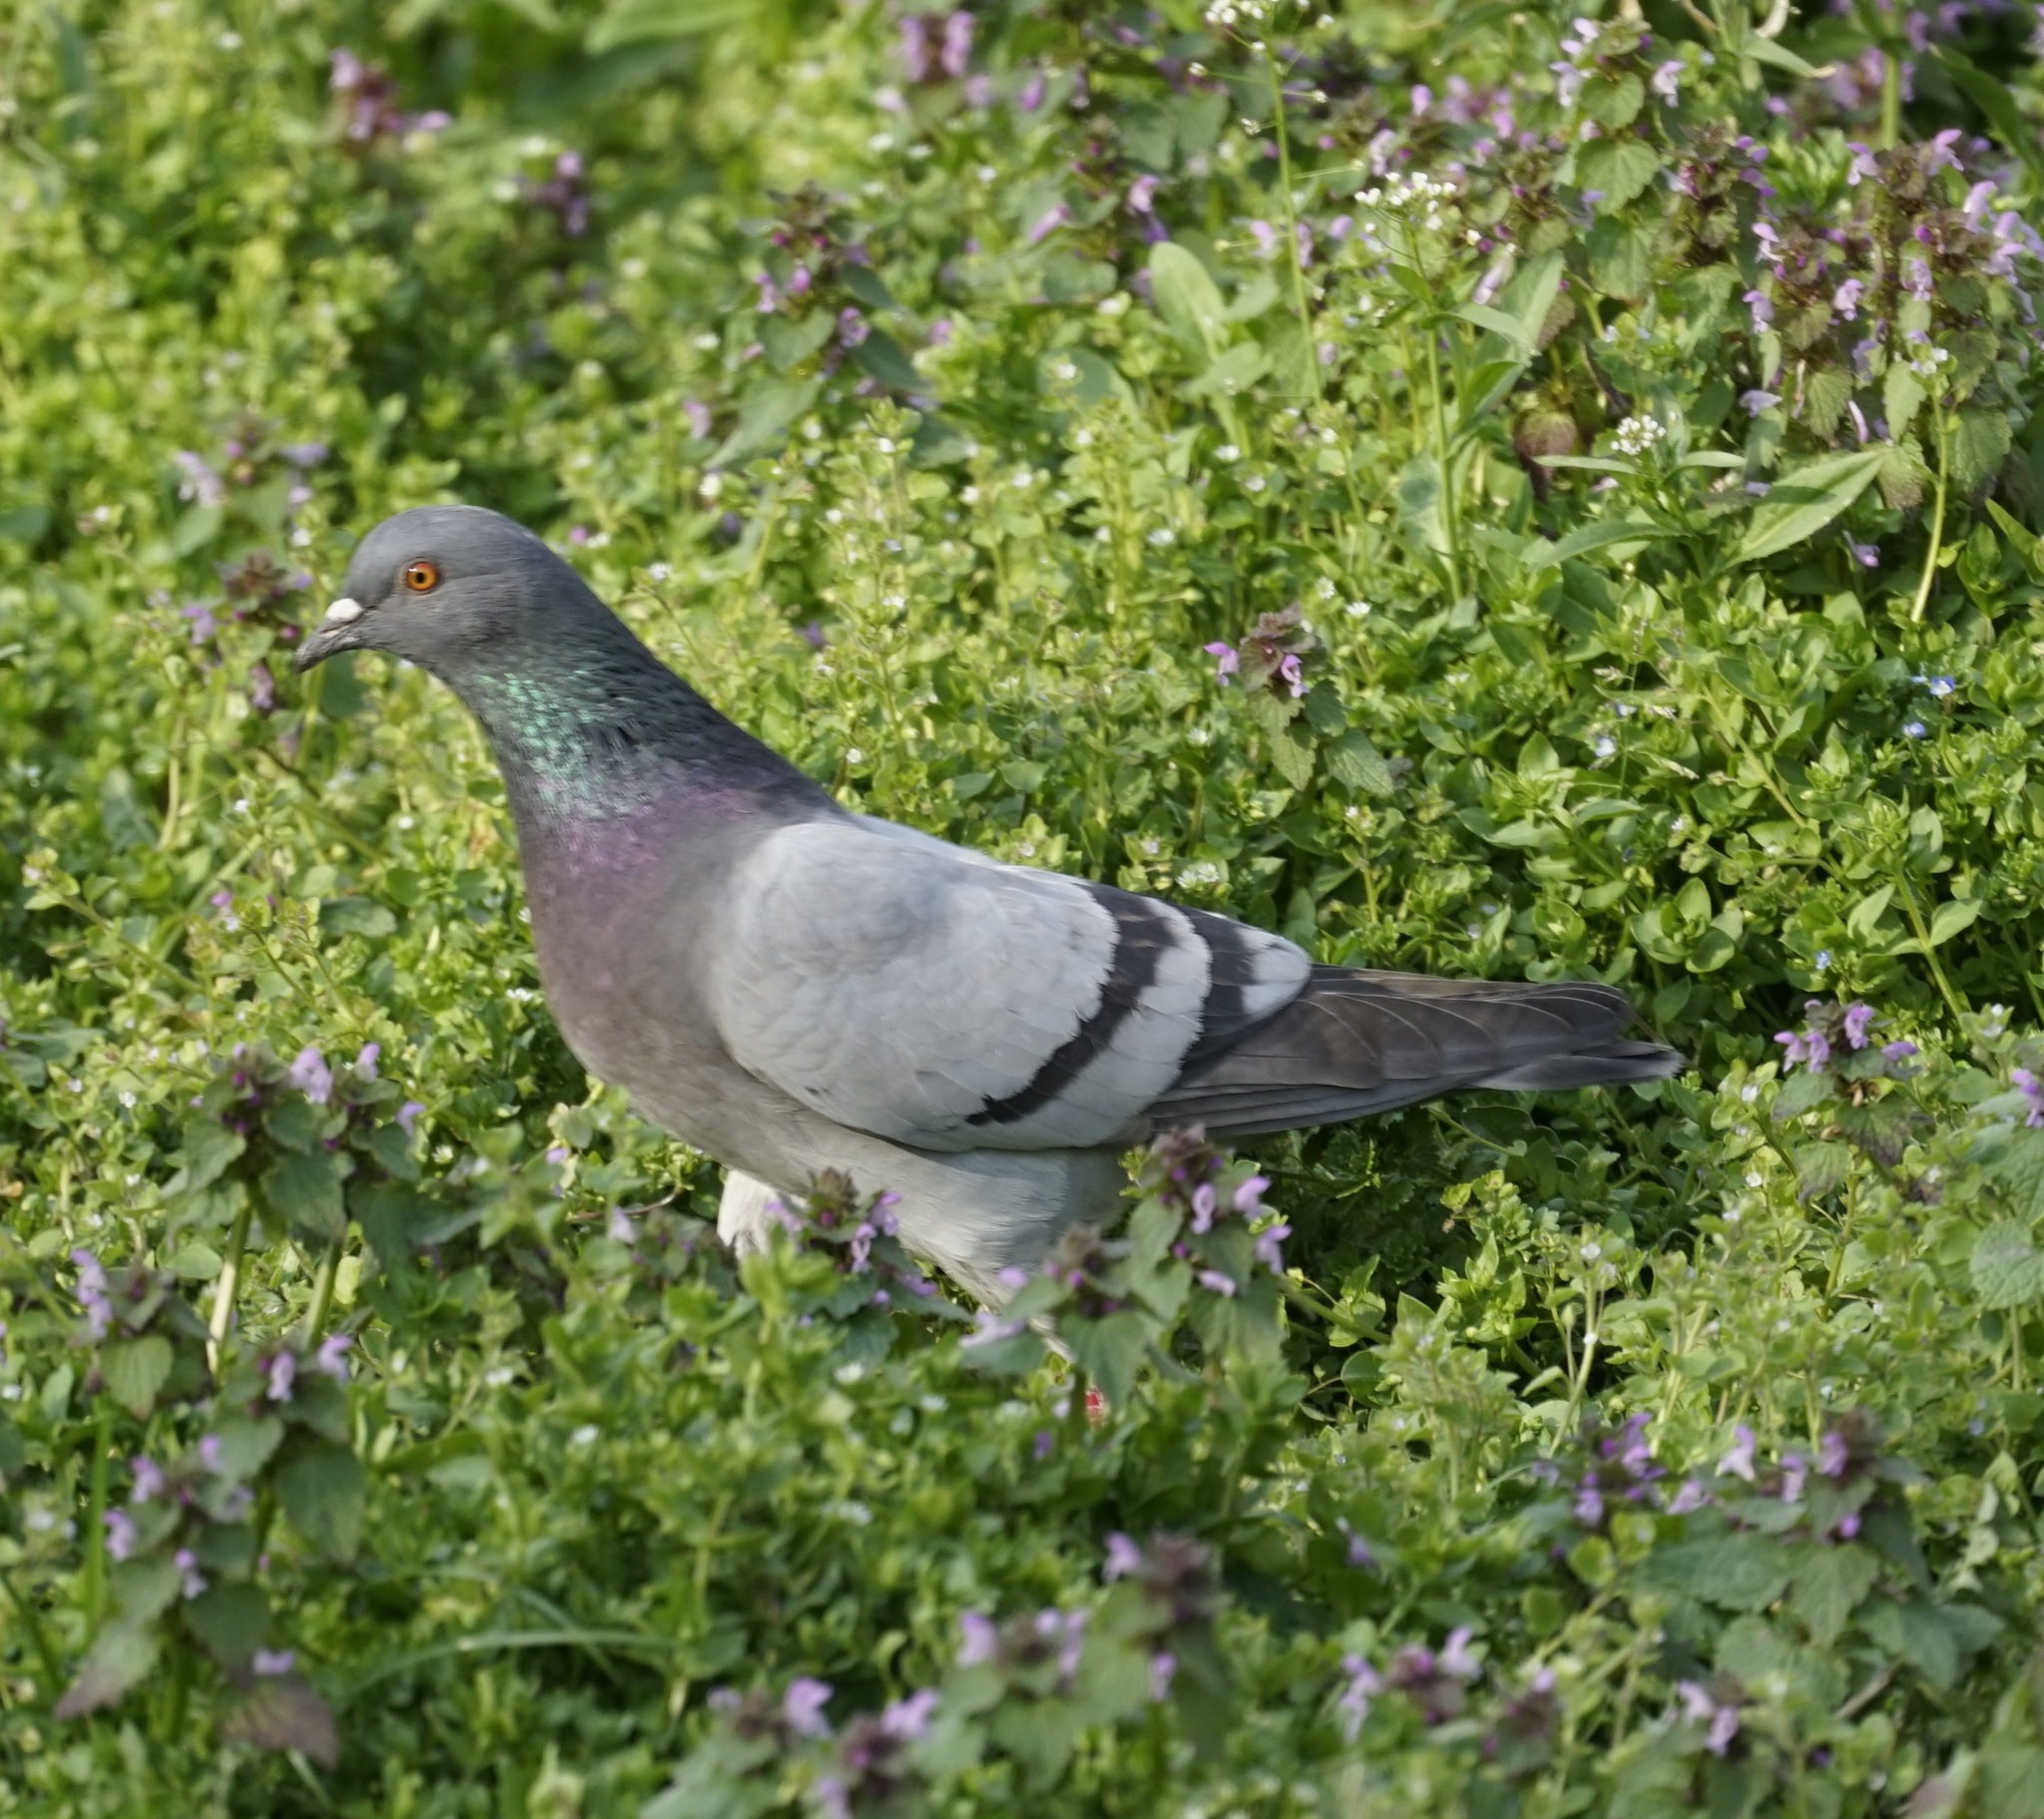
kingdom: Animalia
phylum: Chordata
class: Aves
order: Columbiformes
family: Columbidae
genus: Columba
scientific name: Columba livia
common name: Rock pigeon
